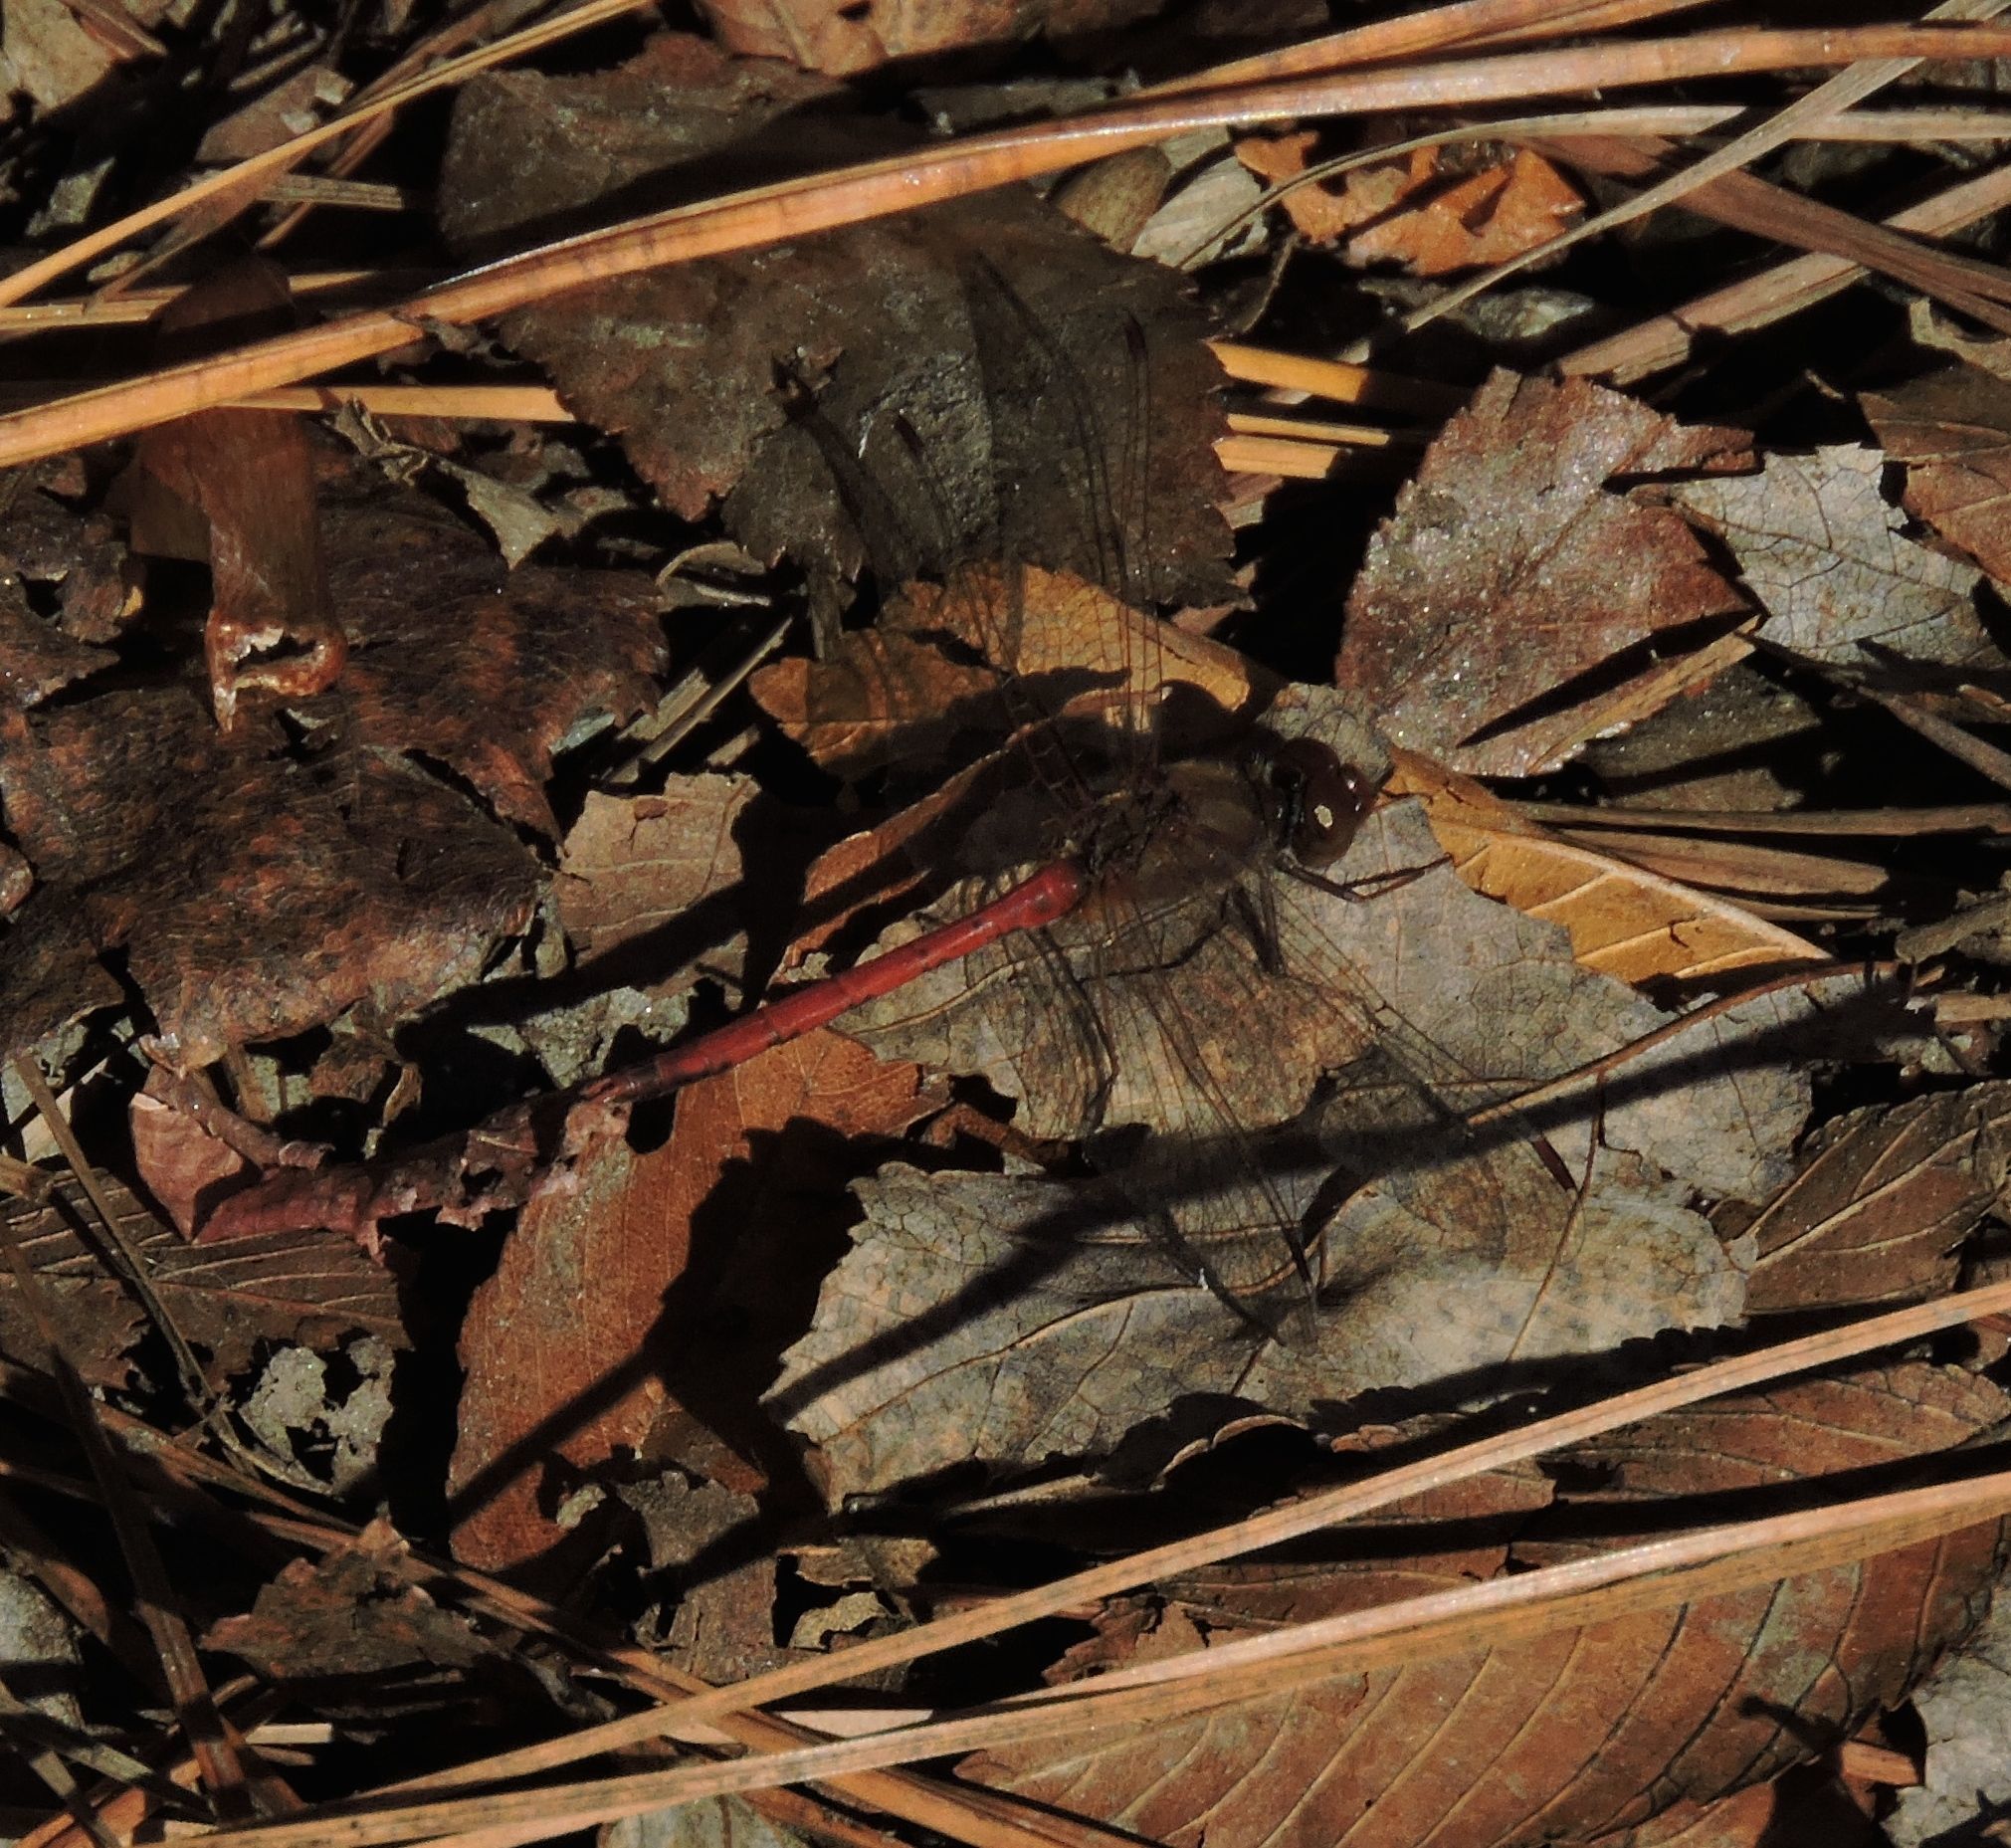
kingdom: Animalia
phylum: Arthropoda
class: Insecta
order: Odonata
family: Libellulidae
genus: Sympetrum
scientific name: Sympetrum vicinum
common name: Autumn meadowhawk
